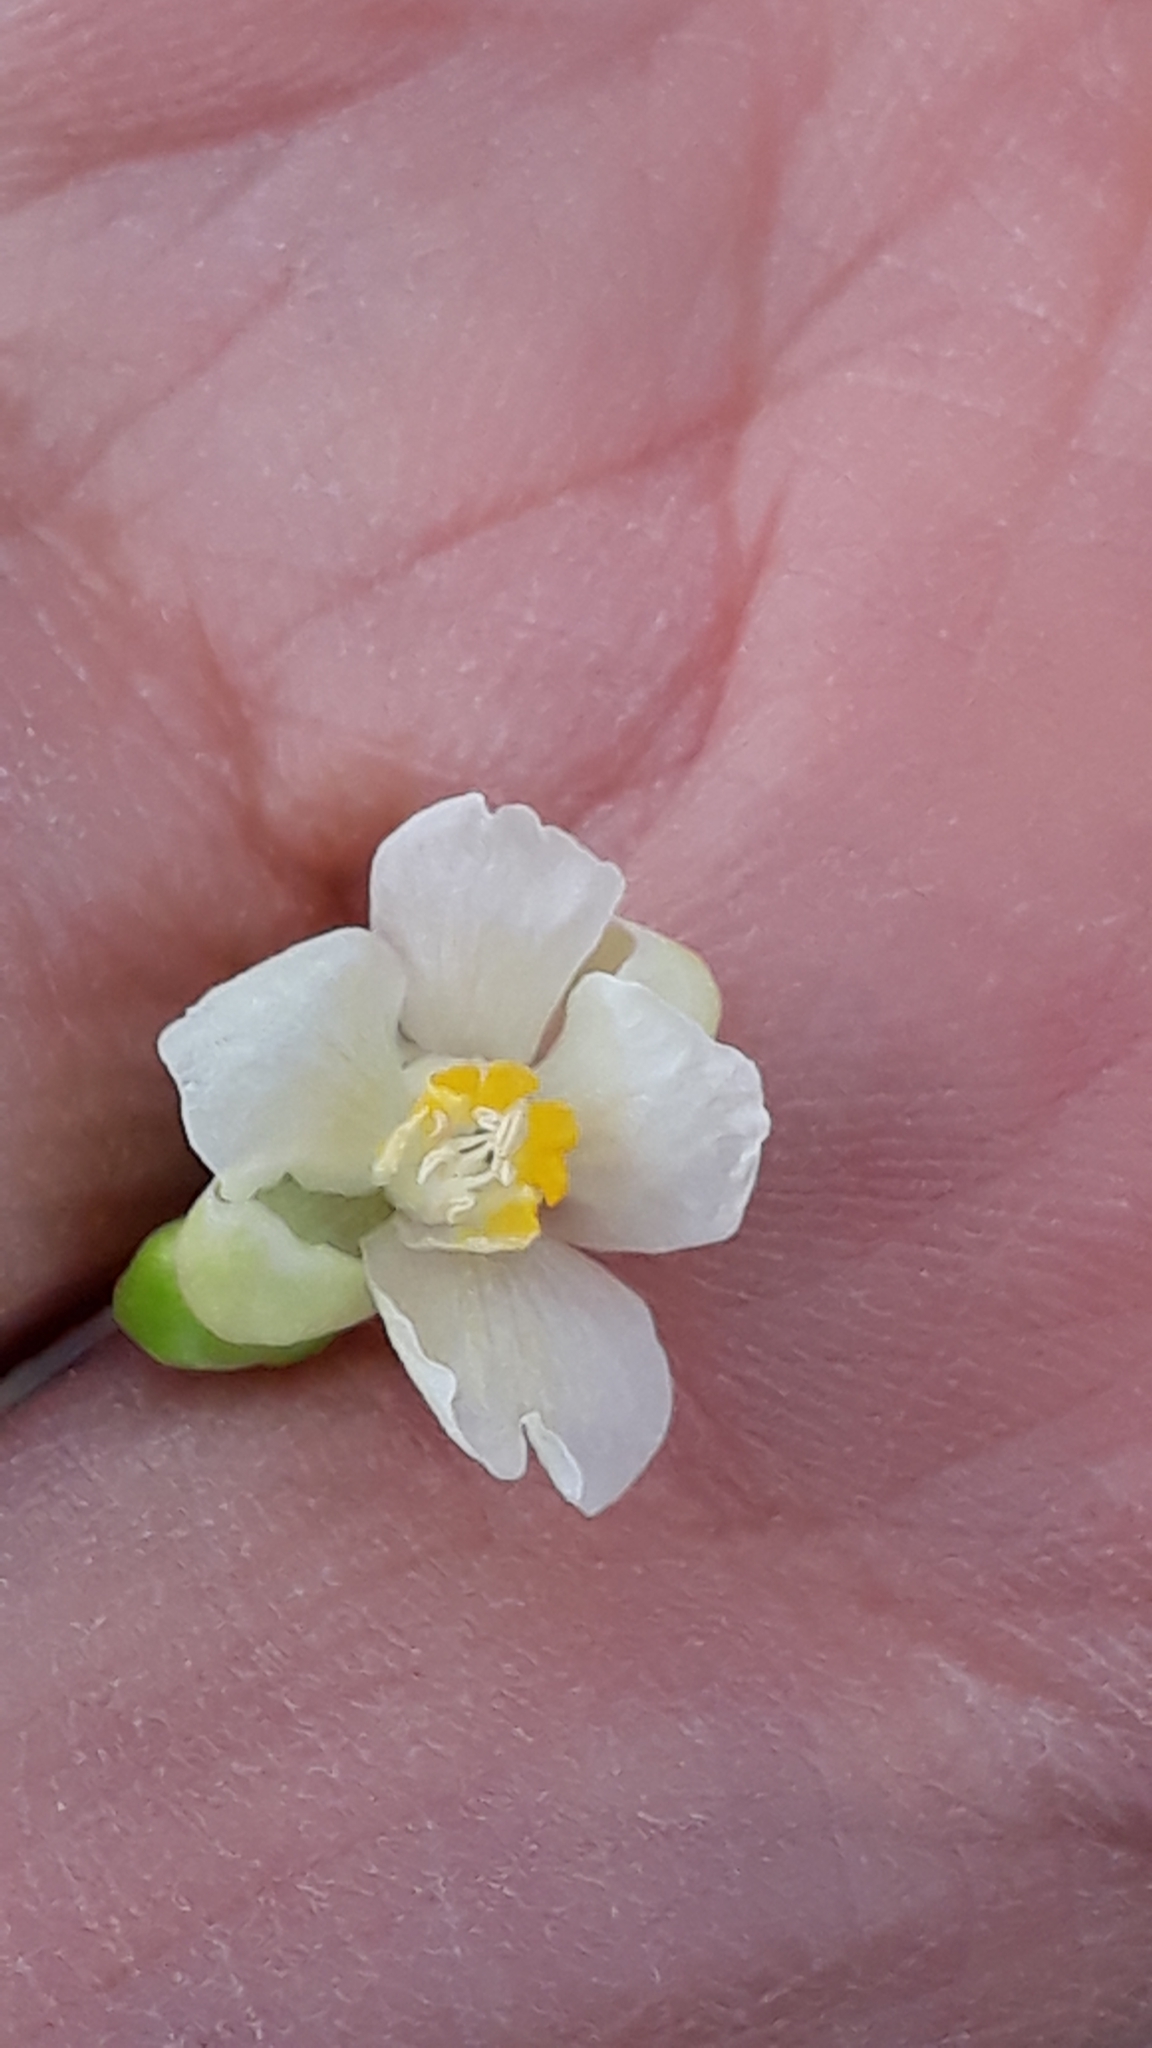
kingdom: Plantae
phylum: Tracheophyta
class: Magnoliopsida
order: Sapindales
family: Sapindaceae
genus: Cardiospermum
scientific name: Cardiospermum grandiflorum
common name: Balloon vine
